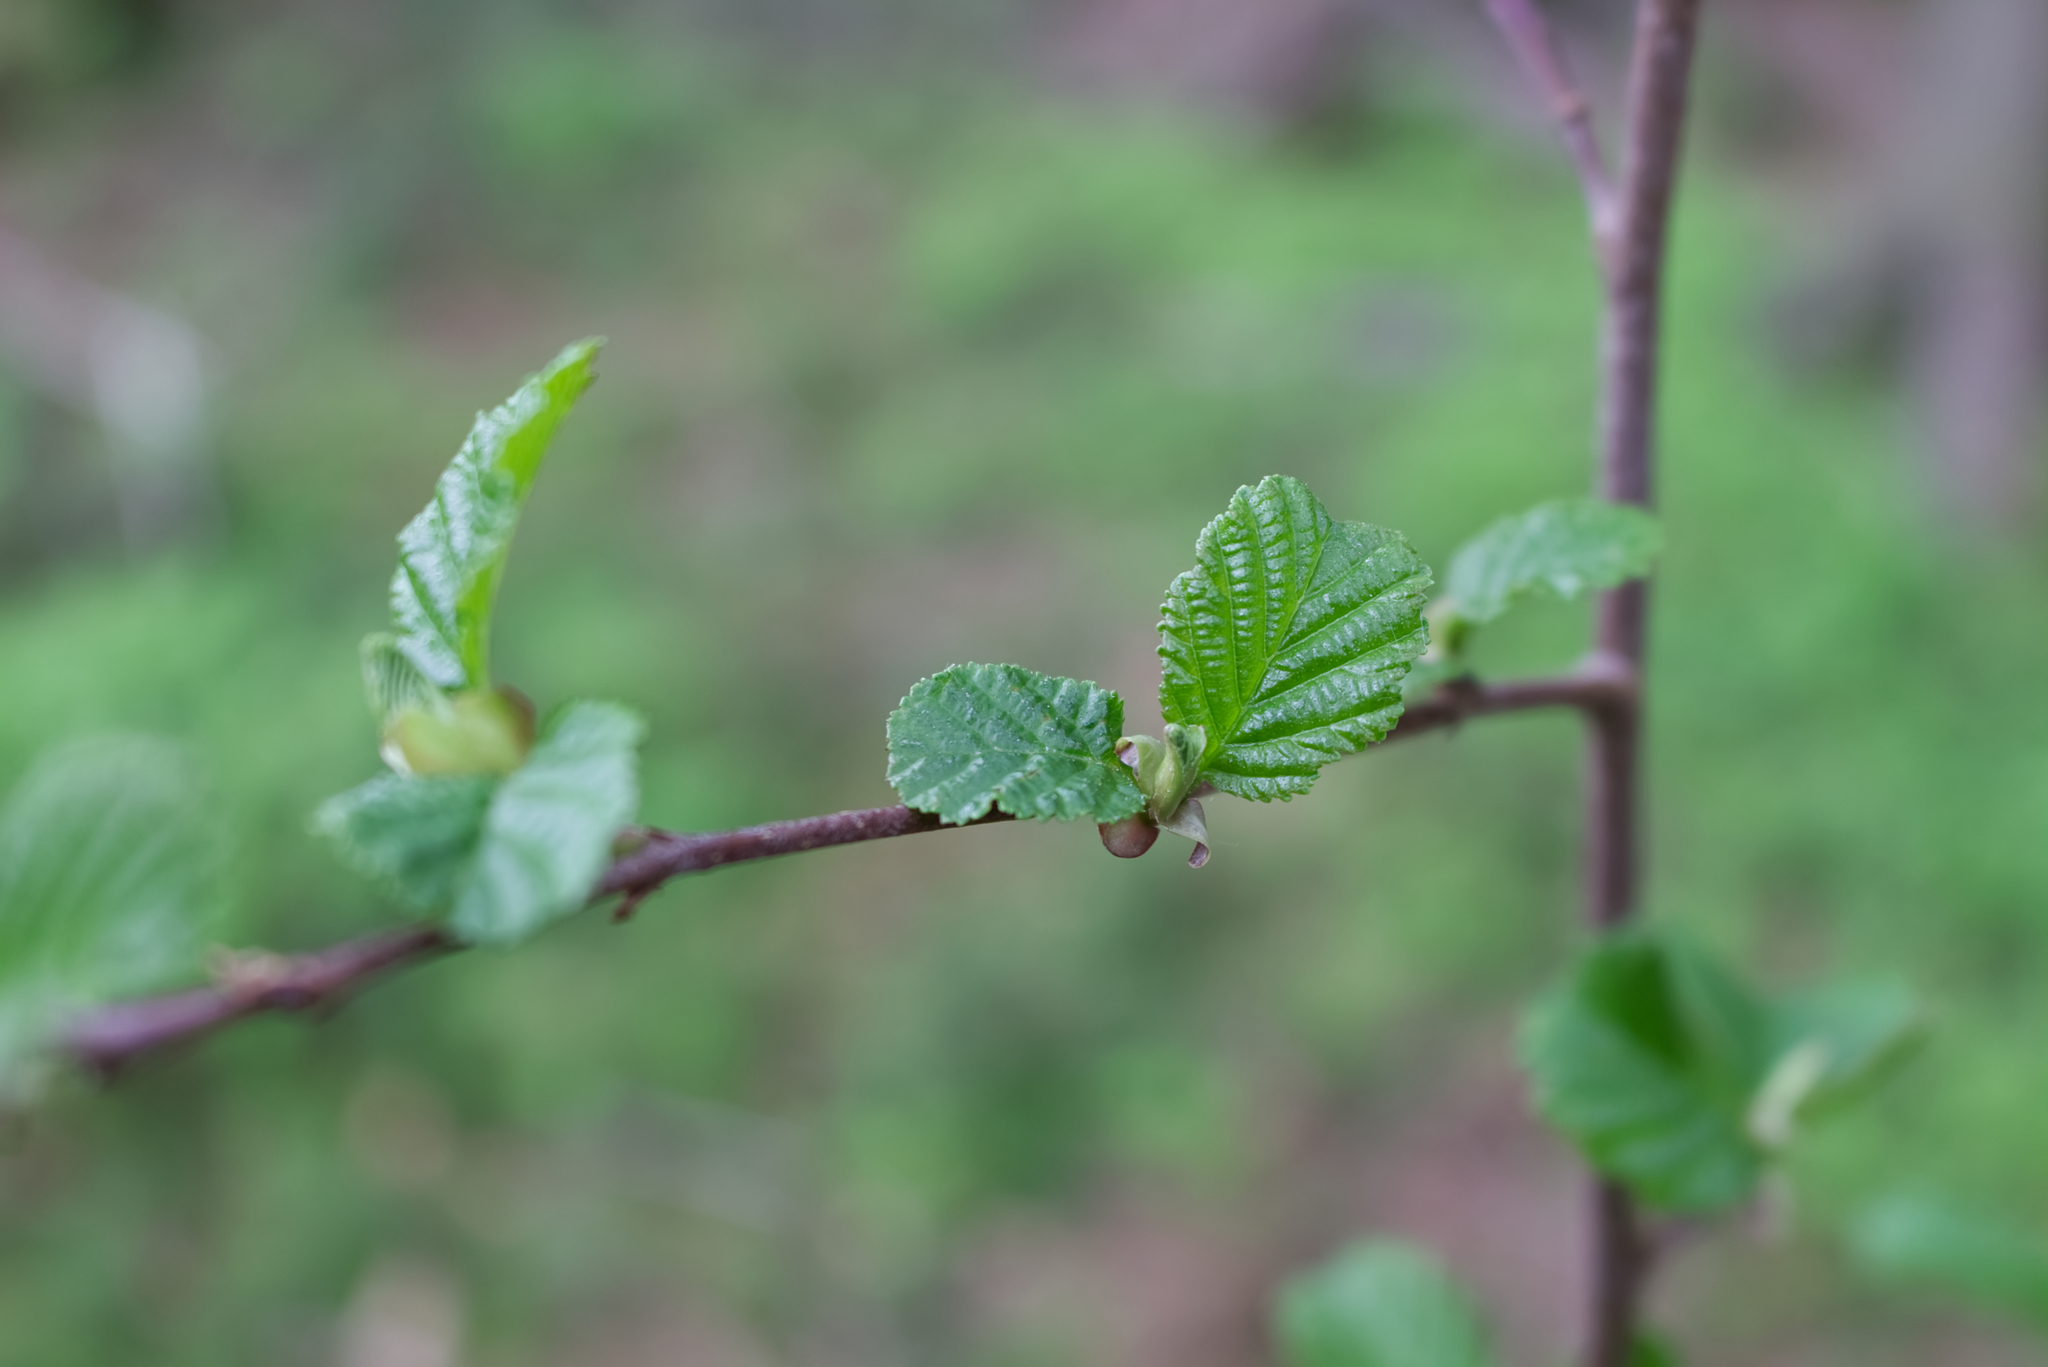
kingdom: Plantae
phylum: Tracheophyta
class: Magnoliopsida
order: Fagales
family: Betulaceae
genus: Alnus
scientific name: Alnus glutinosa
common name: Black alder
